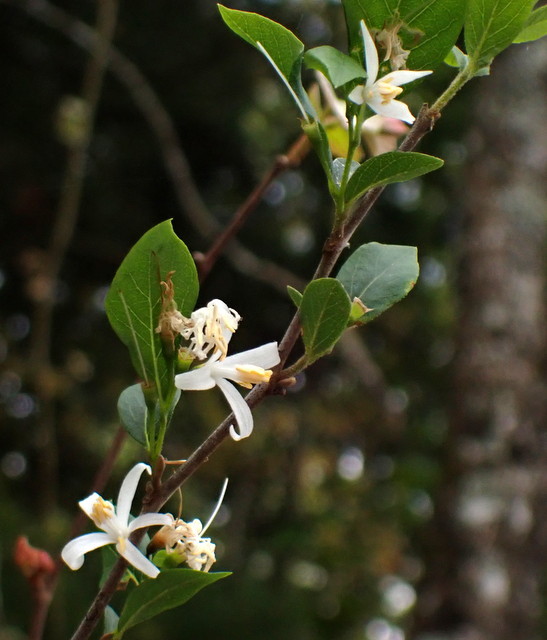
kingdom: Plantae
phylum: Tracheophyta
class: Magnoliopsida
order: Ericales
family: Styracaceae
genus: Styrax
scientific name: Styrax americanus
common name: American snowbell
